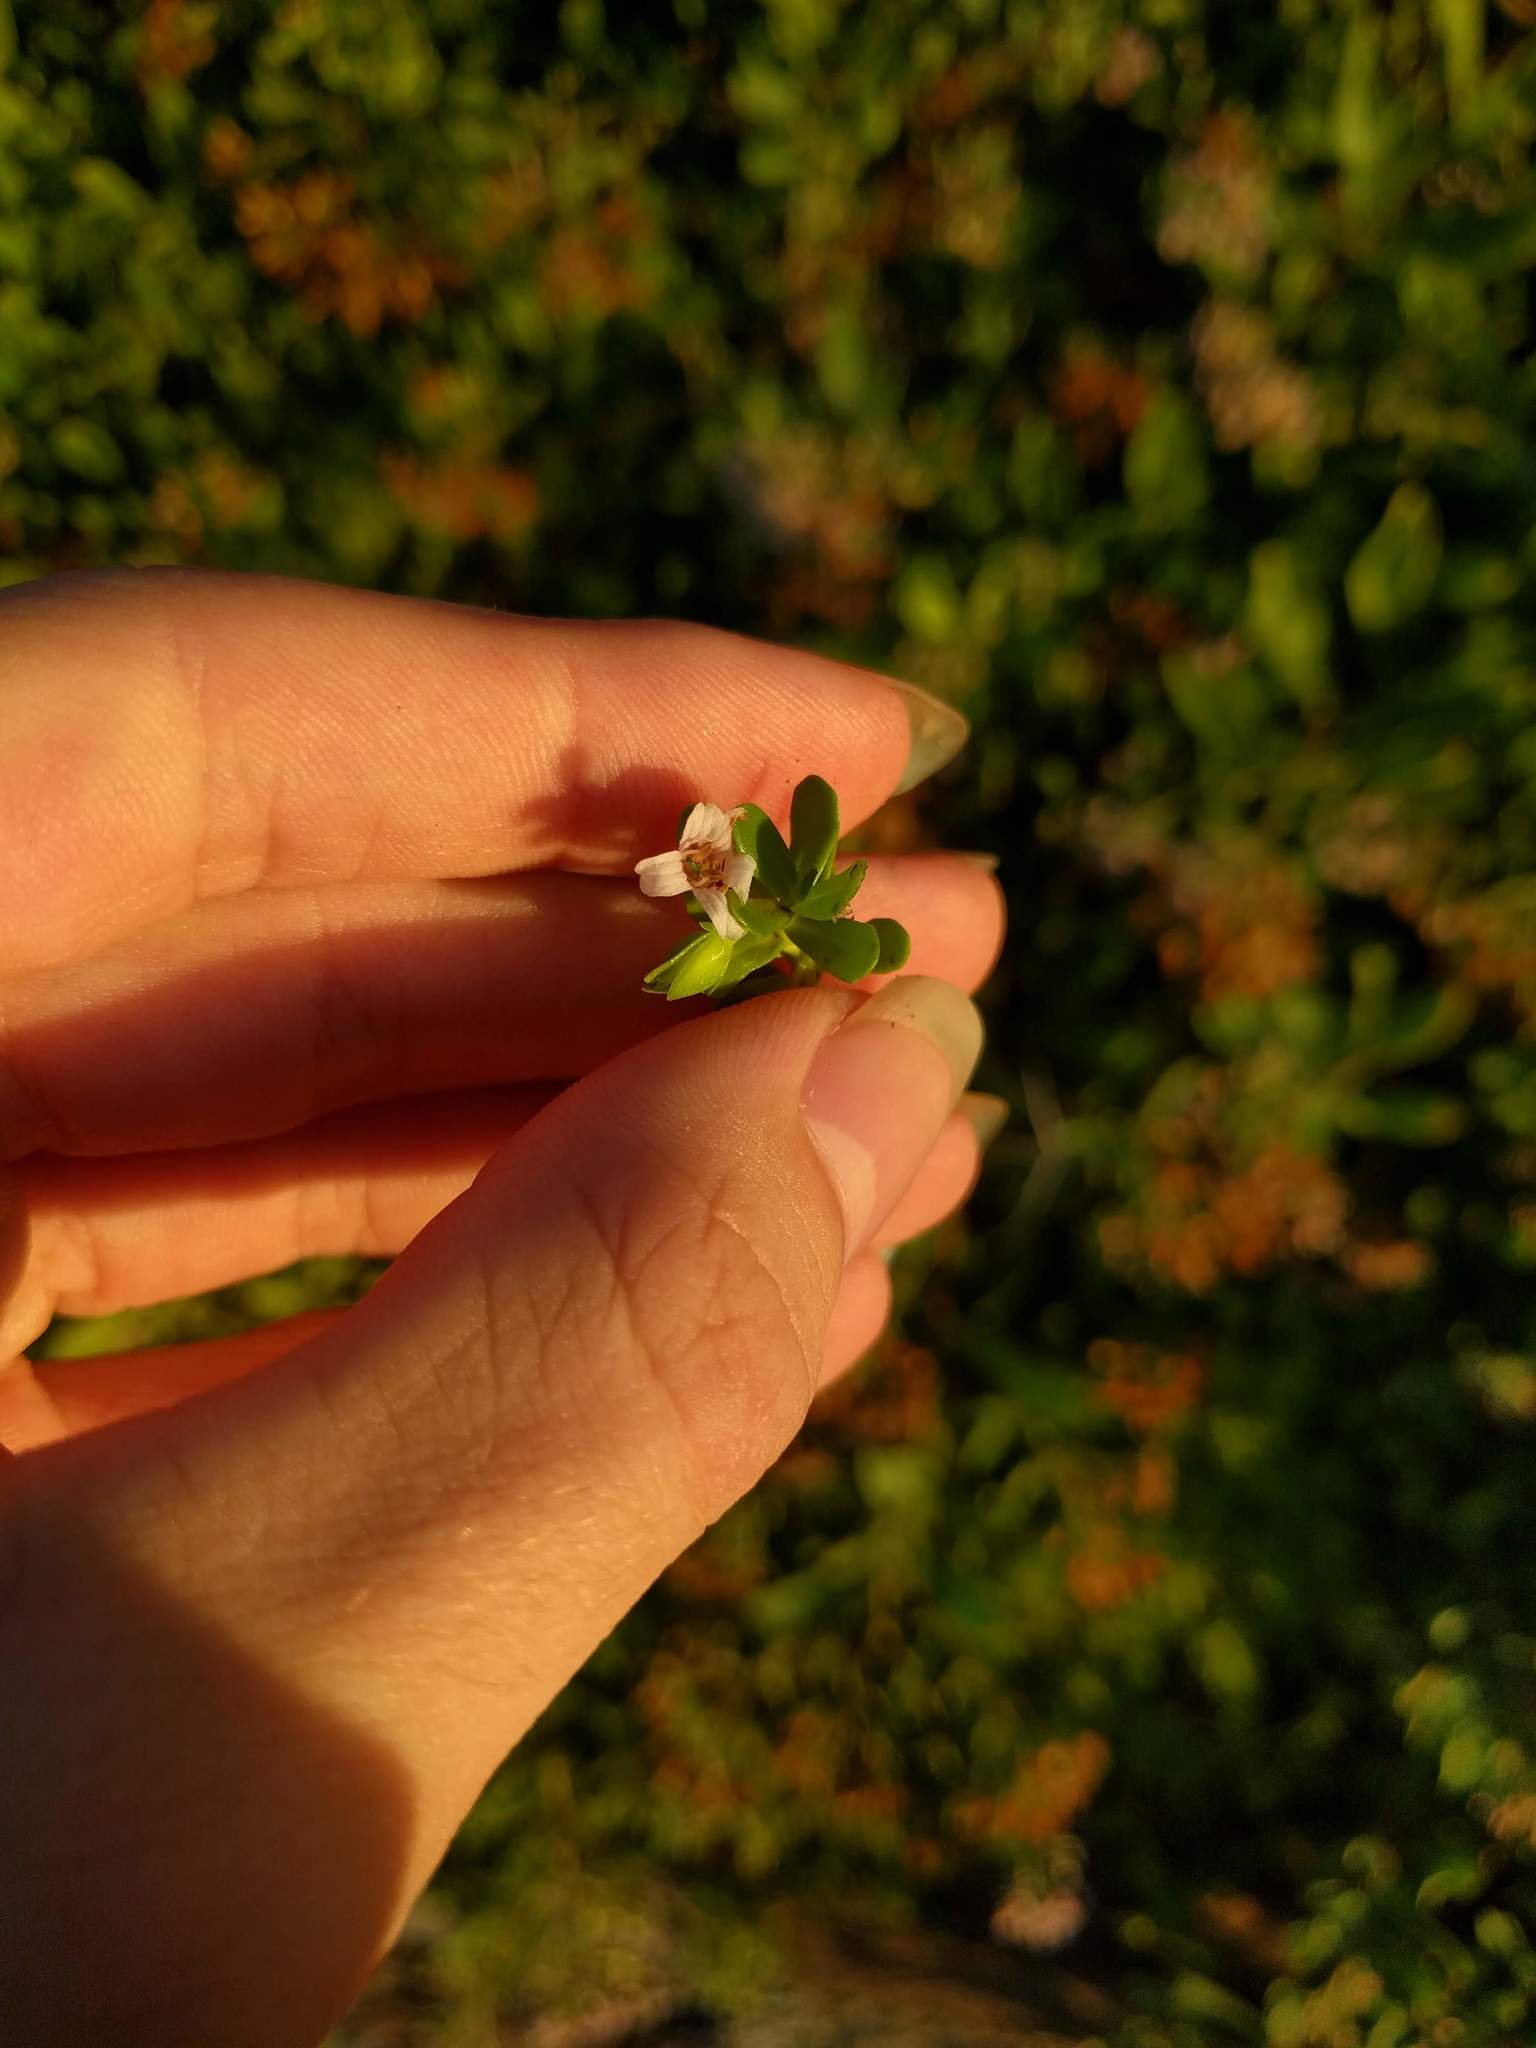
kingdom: Plantae
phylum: Tracheophyta
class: Magnoliopsida
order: Lamiales
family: Plantaginaceae
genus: Bacopa
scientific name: Bacopa monnieri
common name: Indian-pennywort
